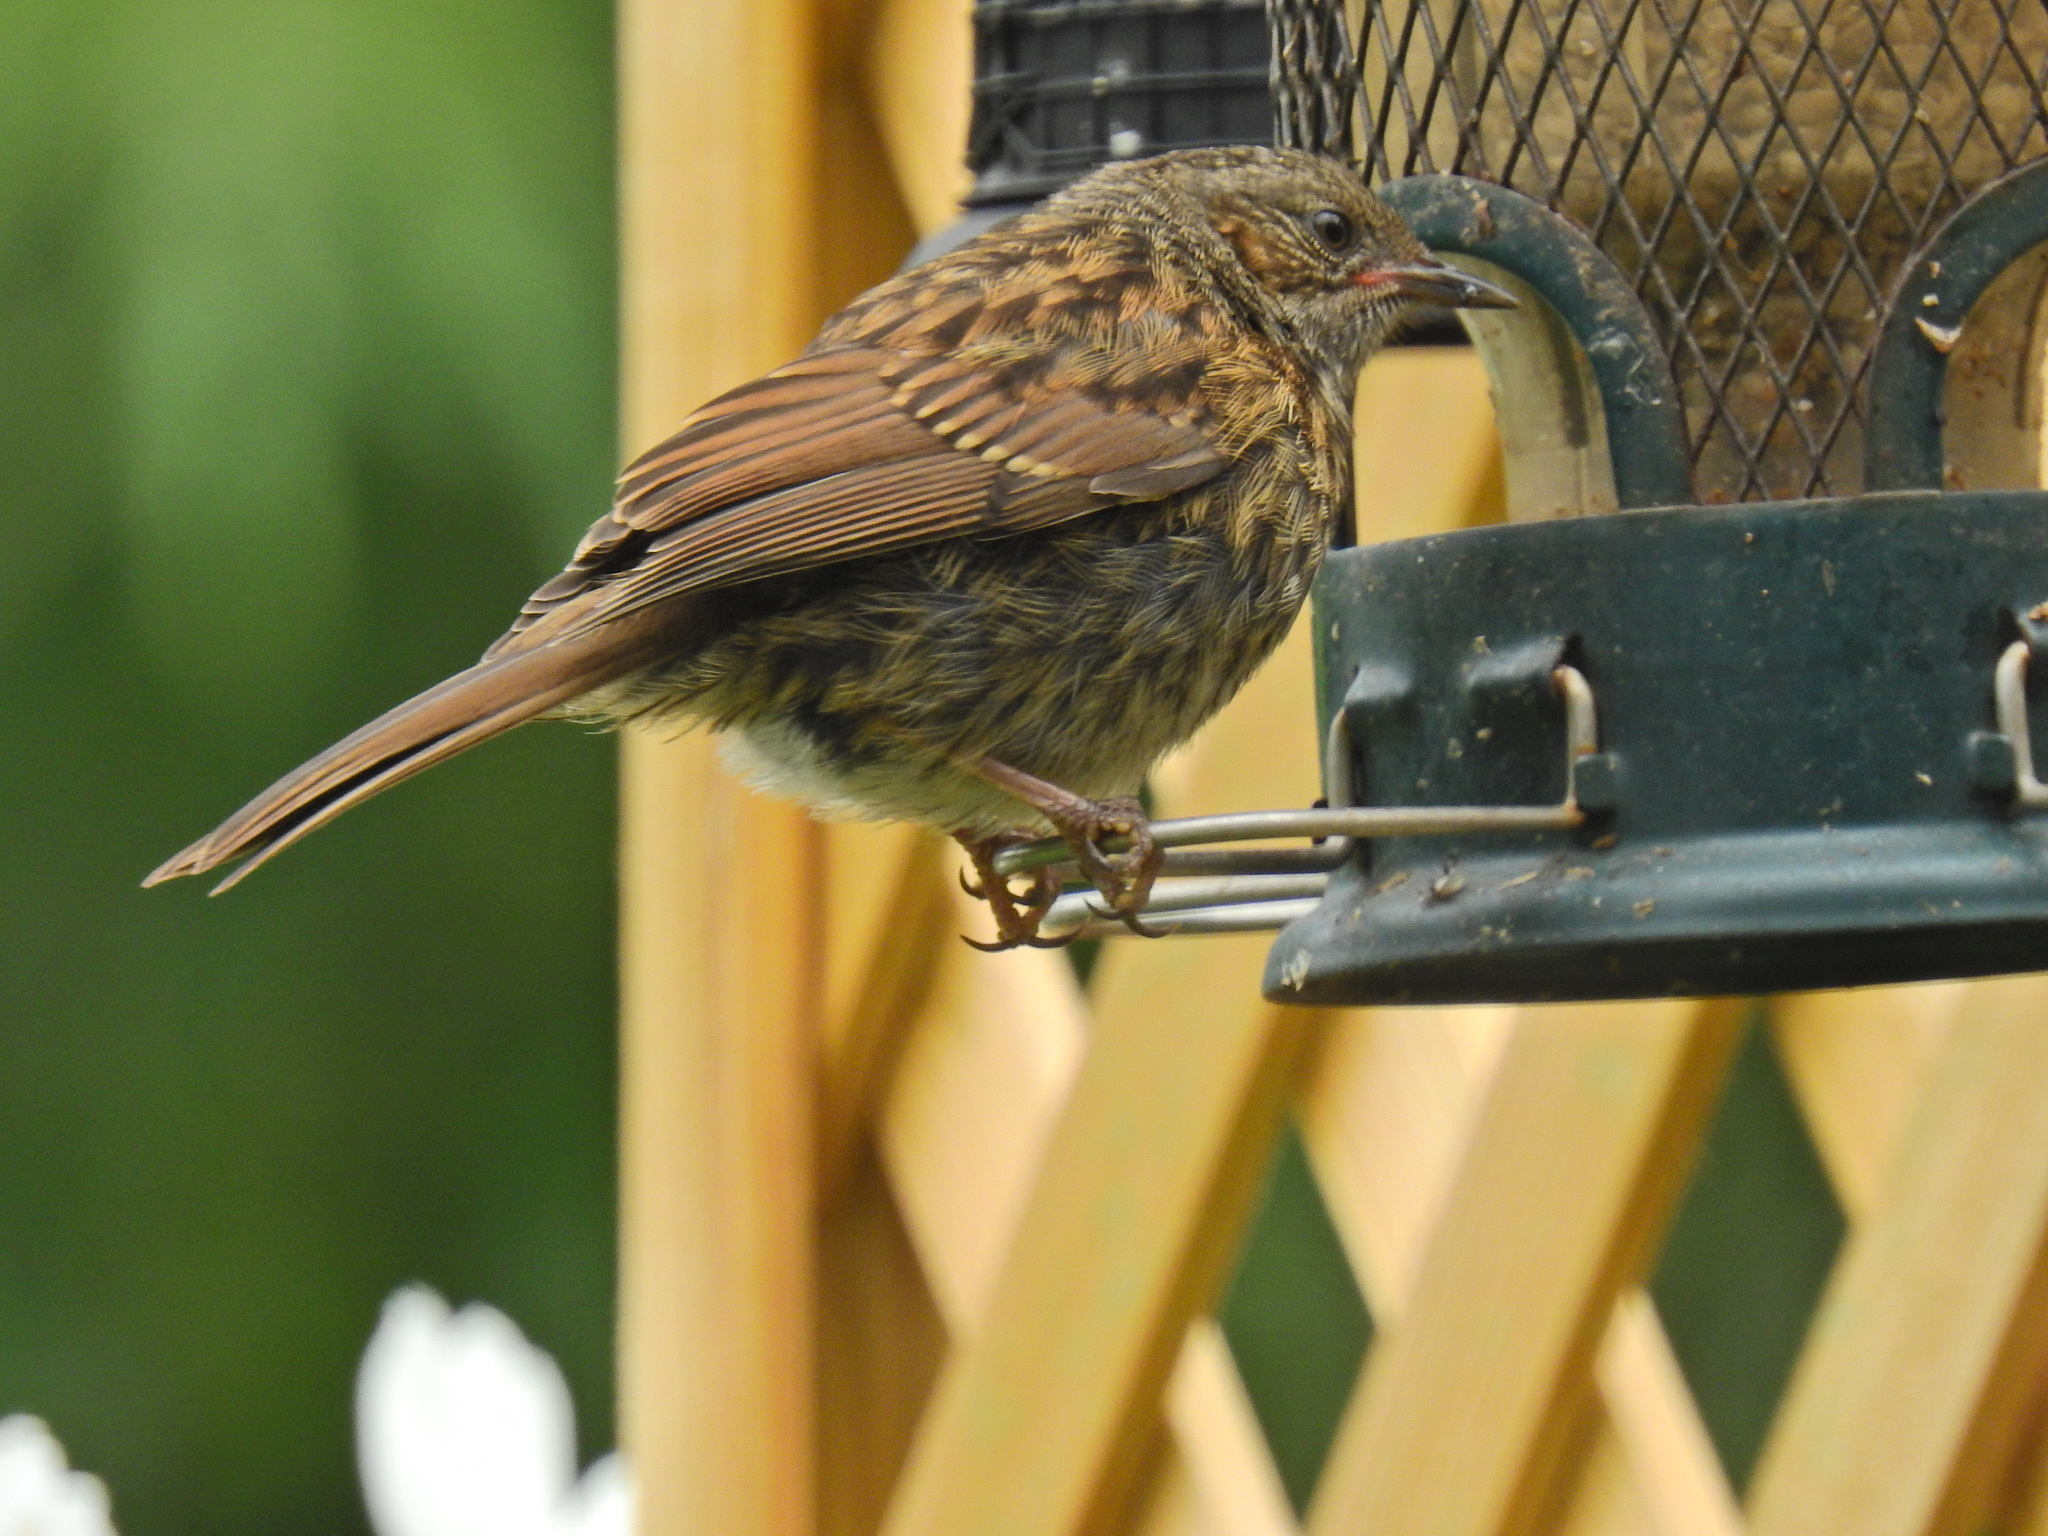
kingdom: Animalia
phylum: Chordata
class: Aves
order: Passeriformes
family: Prunellidae
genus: Prunella
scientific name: Prunella modularis
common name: Dunnock
